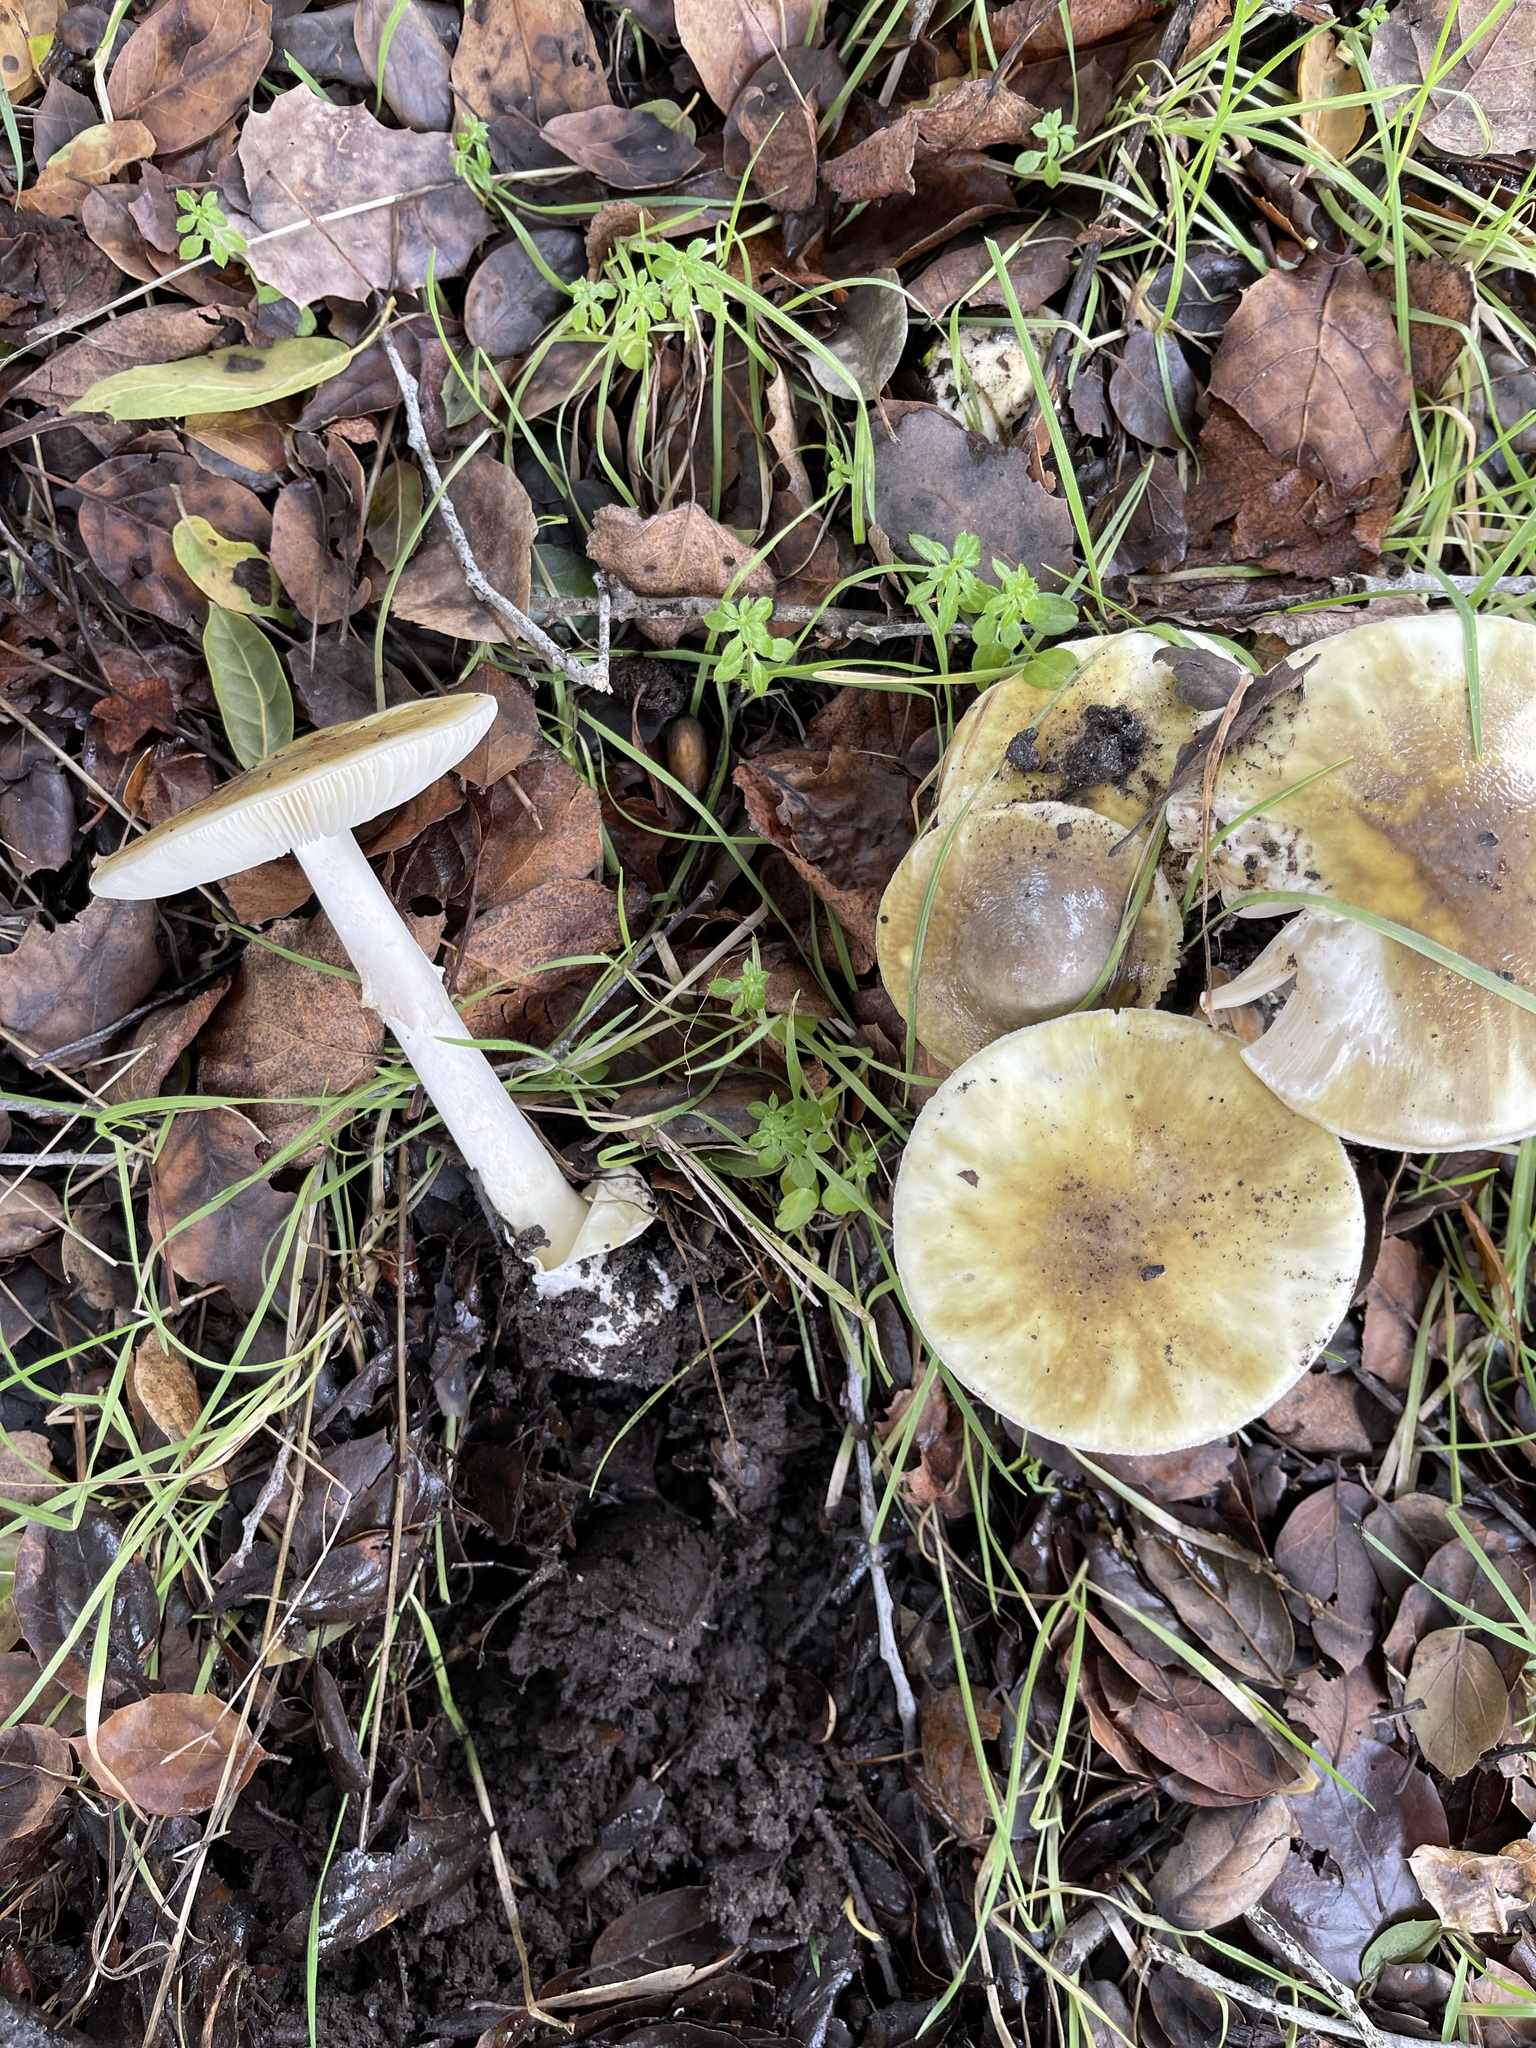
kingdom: Fungi
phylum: Basidiomycota
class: Agaricomycetes
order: Agaricales
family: Amanitaceae
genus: Amanita
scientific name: Amanita phalloides
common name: Death cap
